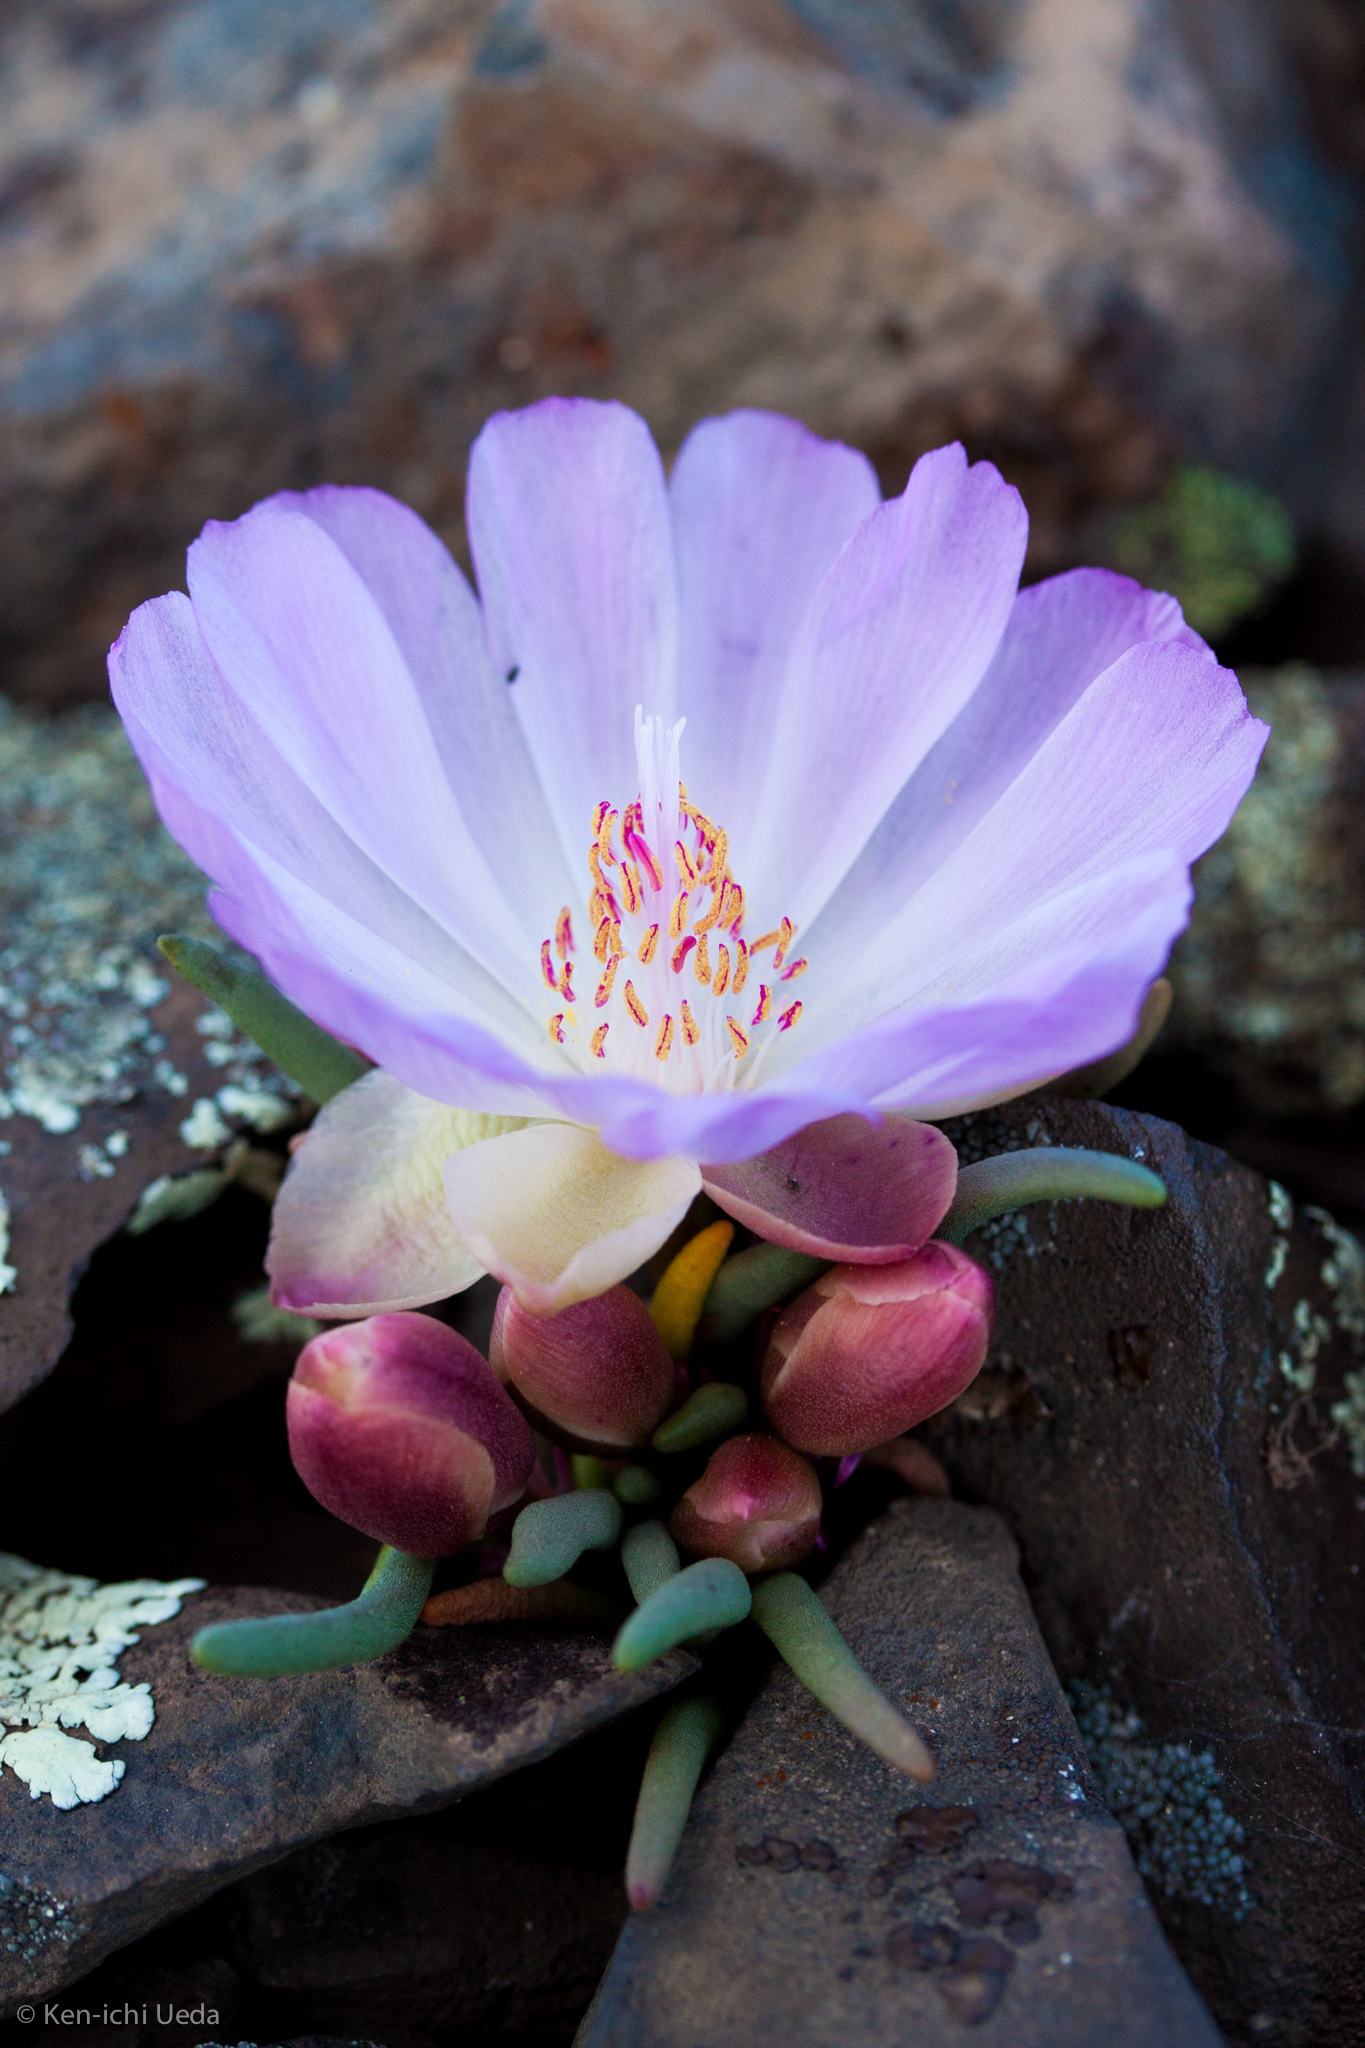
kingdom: Plantae
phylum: Tracheophyta
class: Magnoliopsida
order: Caryophyllales
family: Montiaceae
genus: Lewisia
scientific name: Lewisia rediviva
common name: Bitter-root
